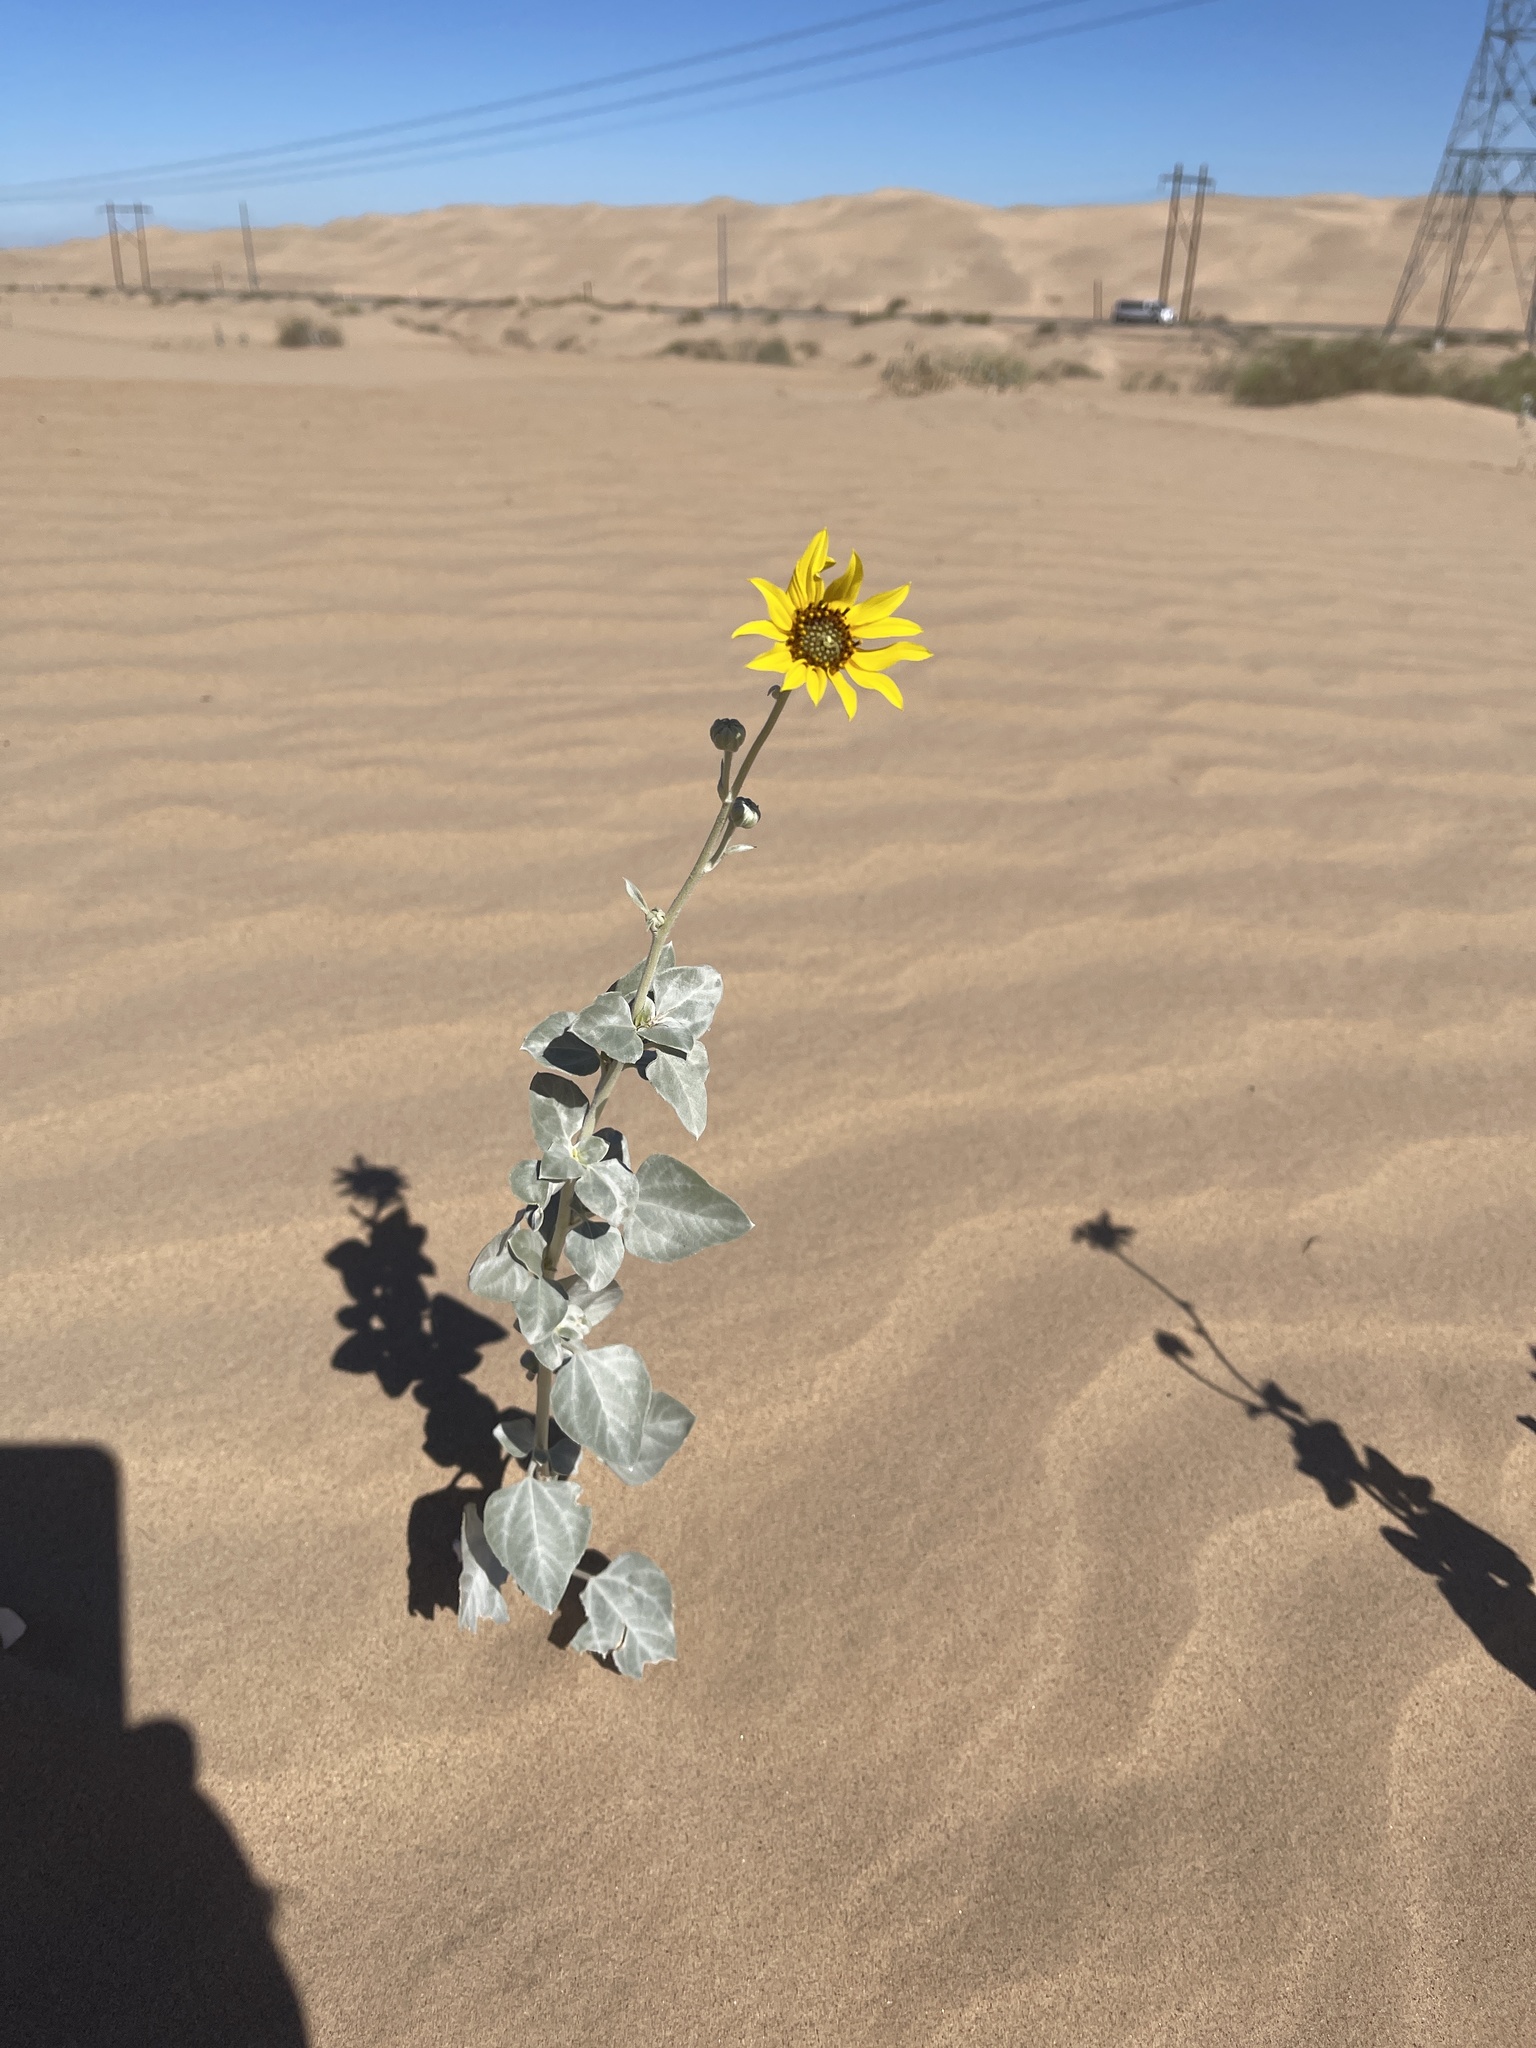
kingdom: Plantae
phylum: Tracheophyta
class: Magnoliopsida
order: Asterales
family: Asteraceae
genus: Helianthus
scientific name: Helianthus niveus
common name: Snowy sunflower
